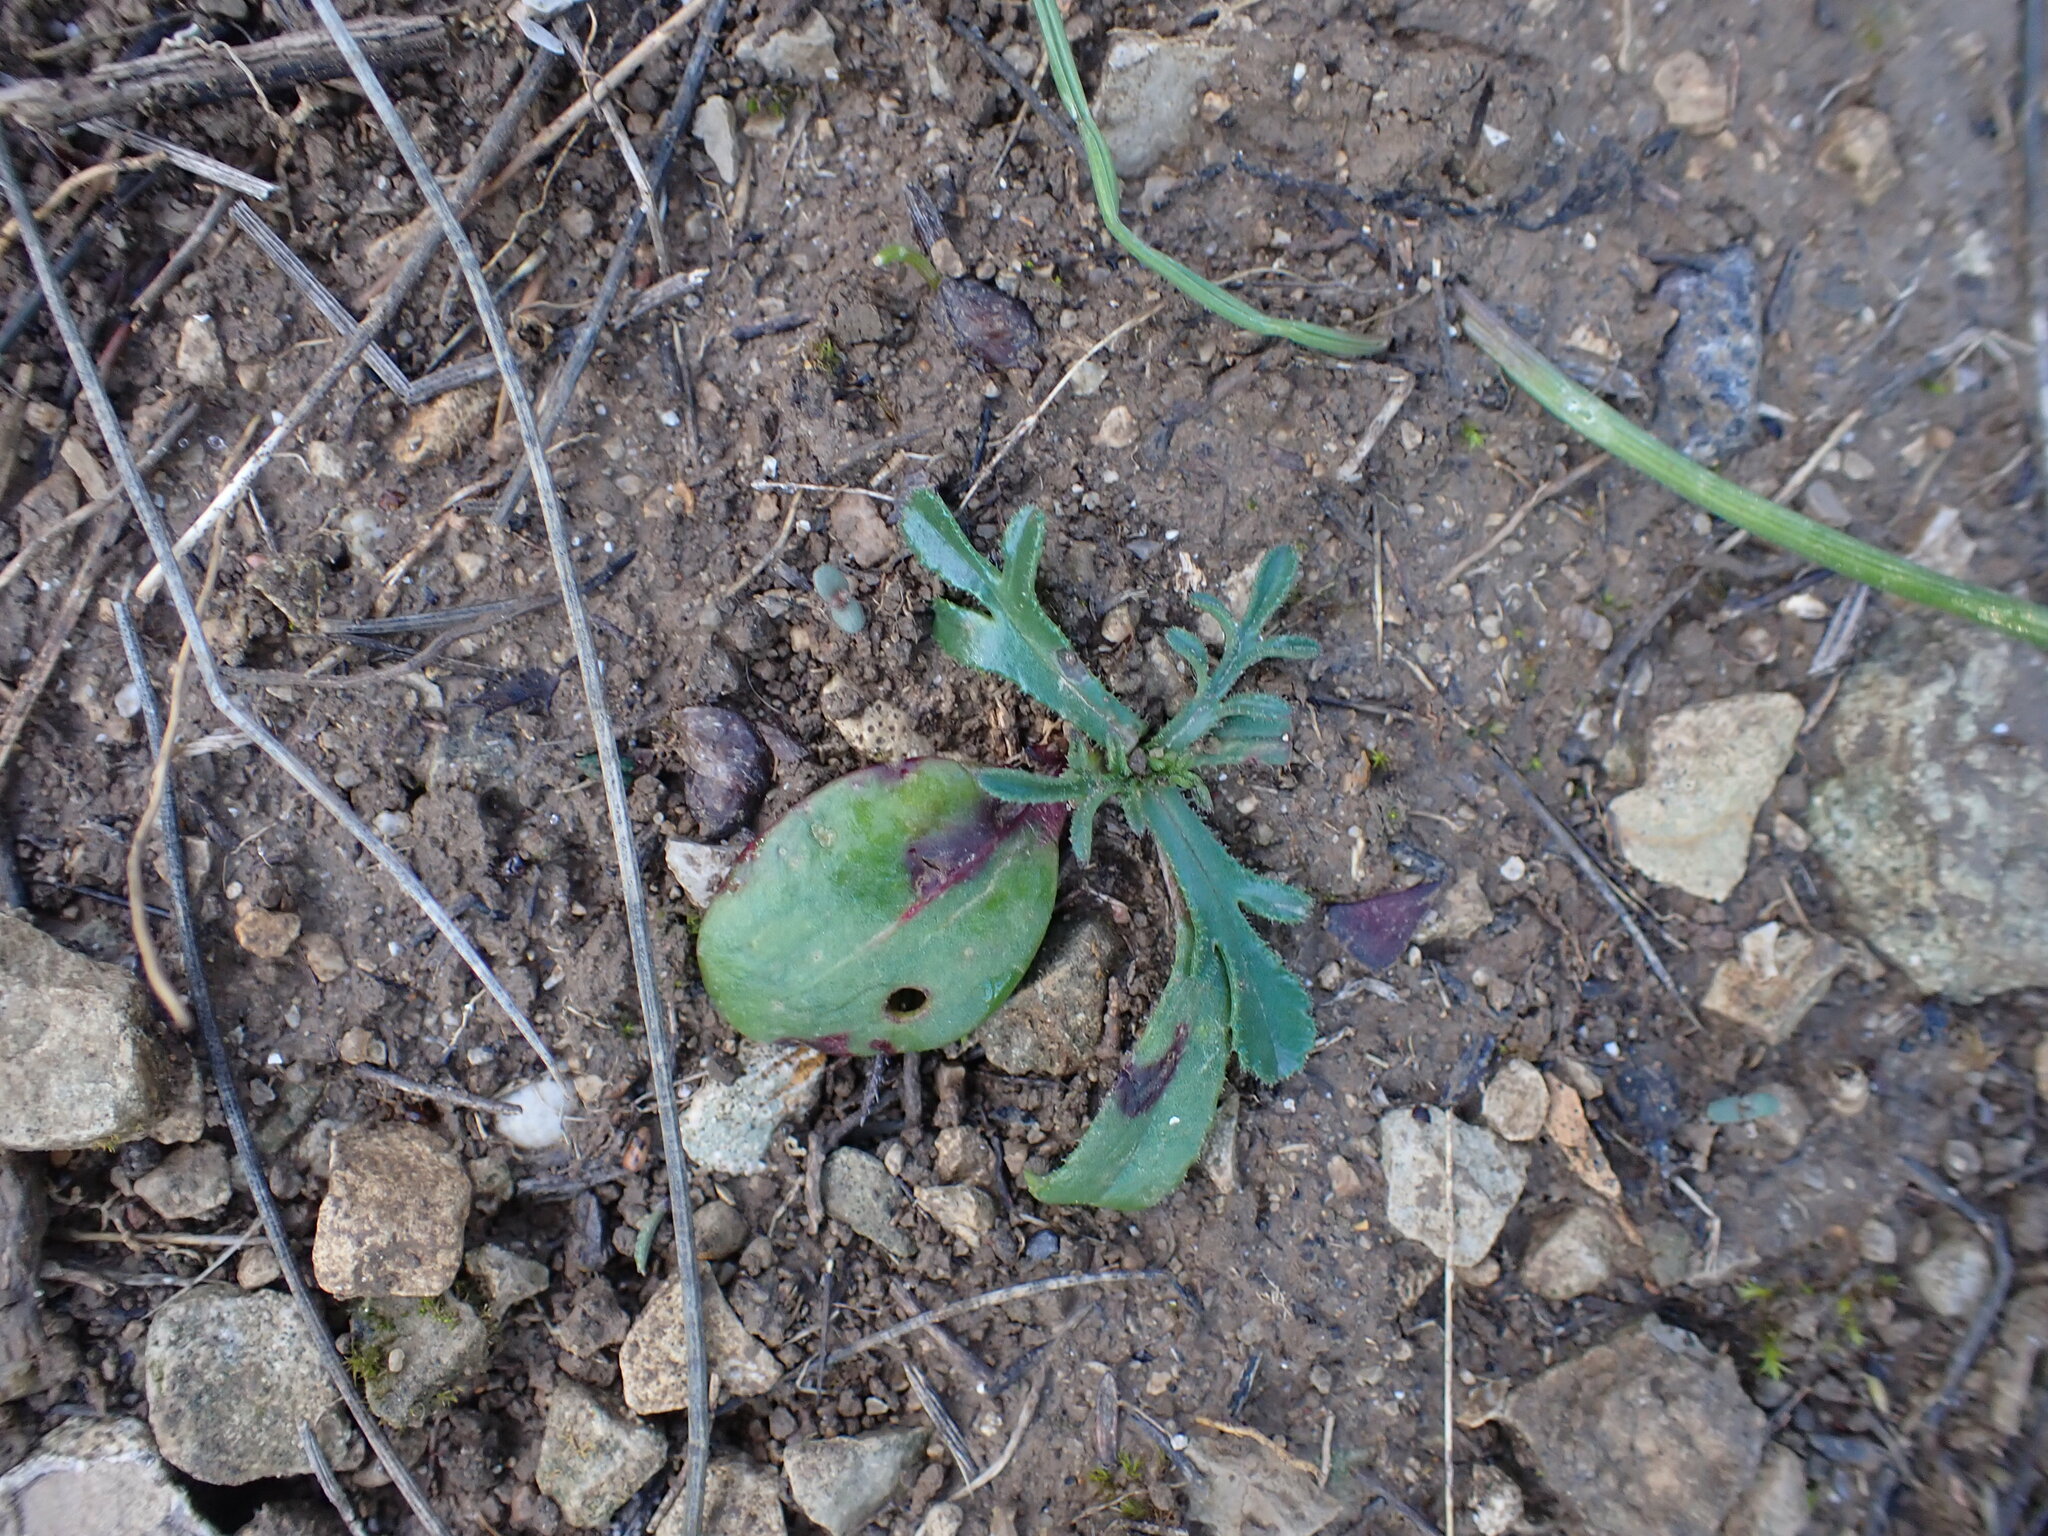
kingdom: Plantae
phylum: Tracheophyta
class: Magnoliopsida
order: Asterales
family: Asteraceae
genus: Crupina
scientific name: Crupina vulgaris
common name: Common crupina
